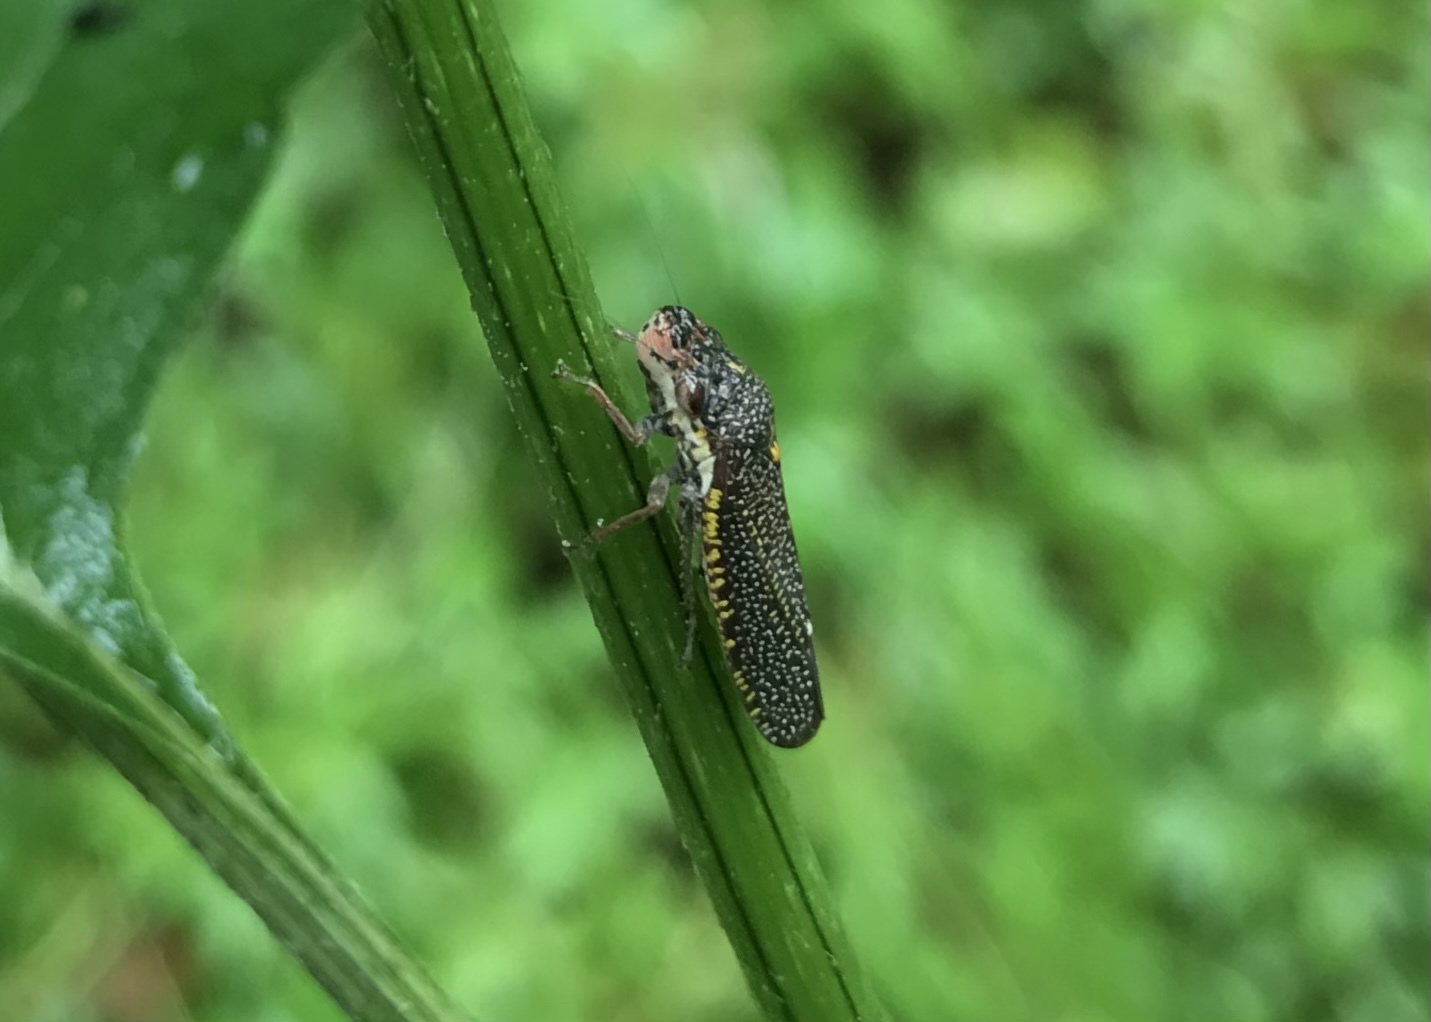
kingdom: Animalia
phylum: Arthropoda
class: Insecta
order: Hemiptera
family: Cicadellidae
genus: Paraulacizes
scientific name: Paraulacizes irrorata
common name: Speckled sharpshooter
